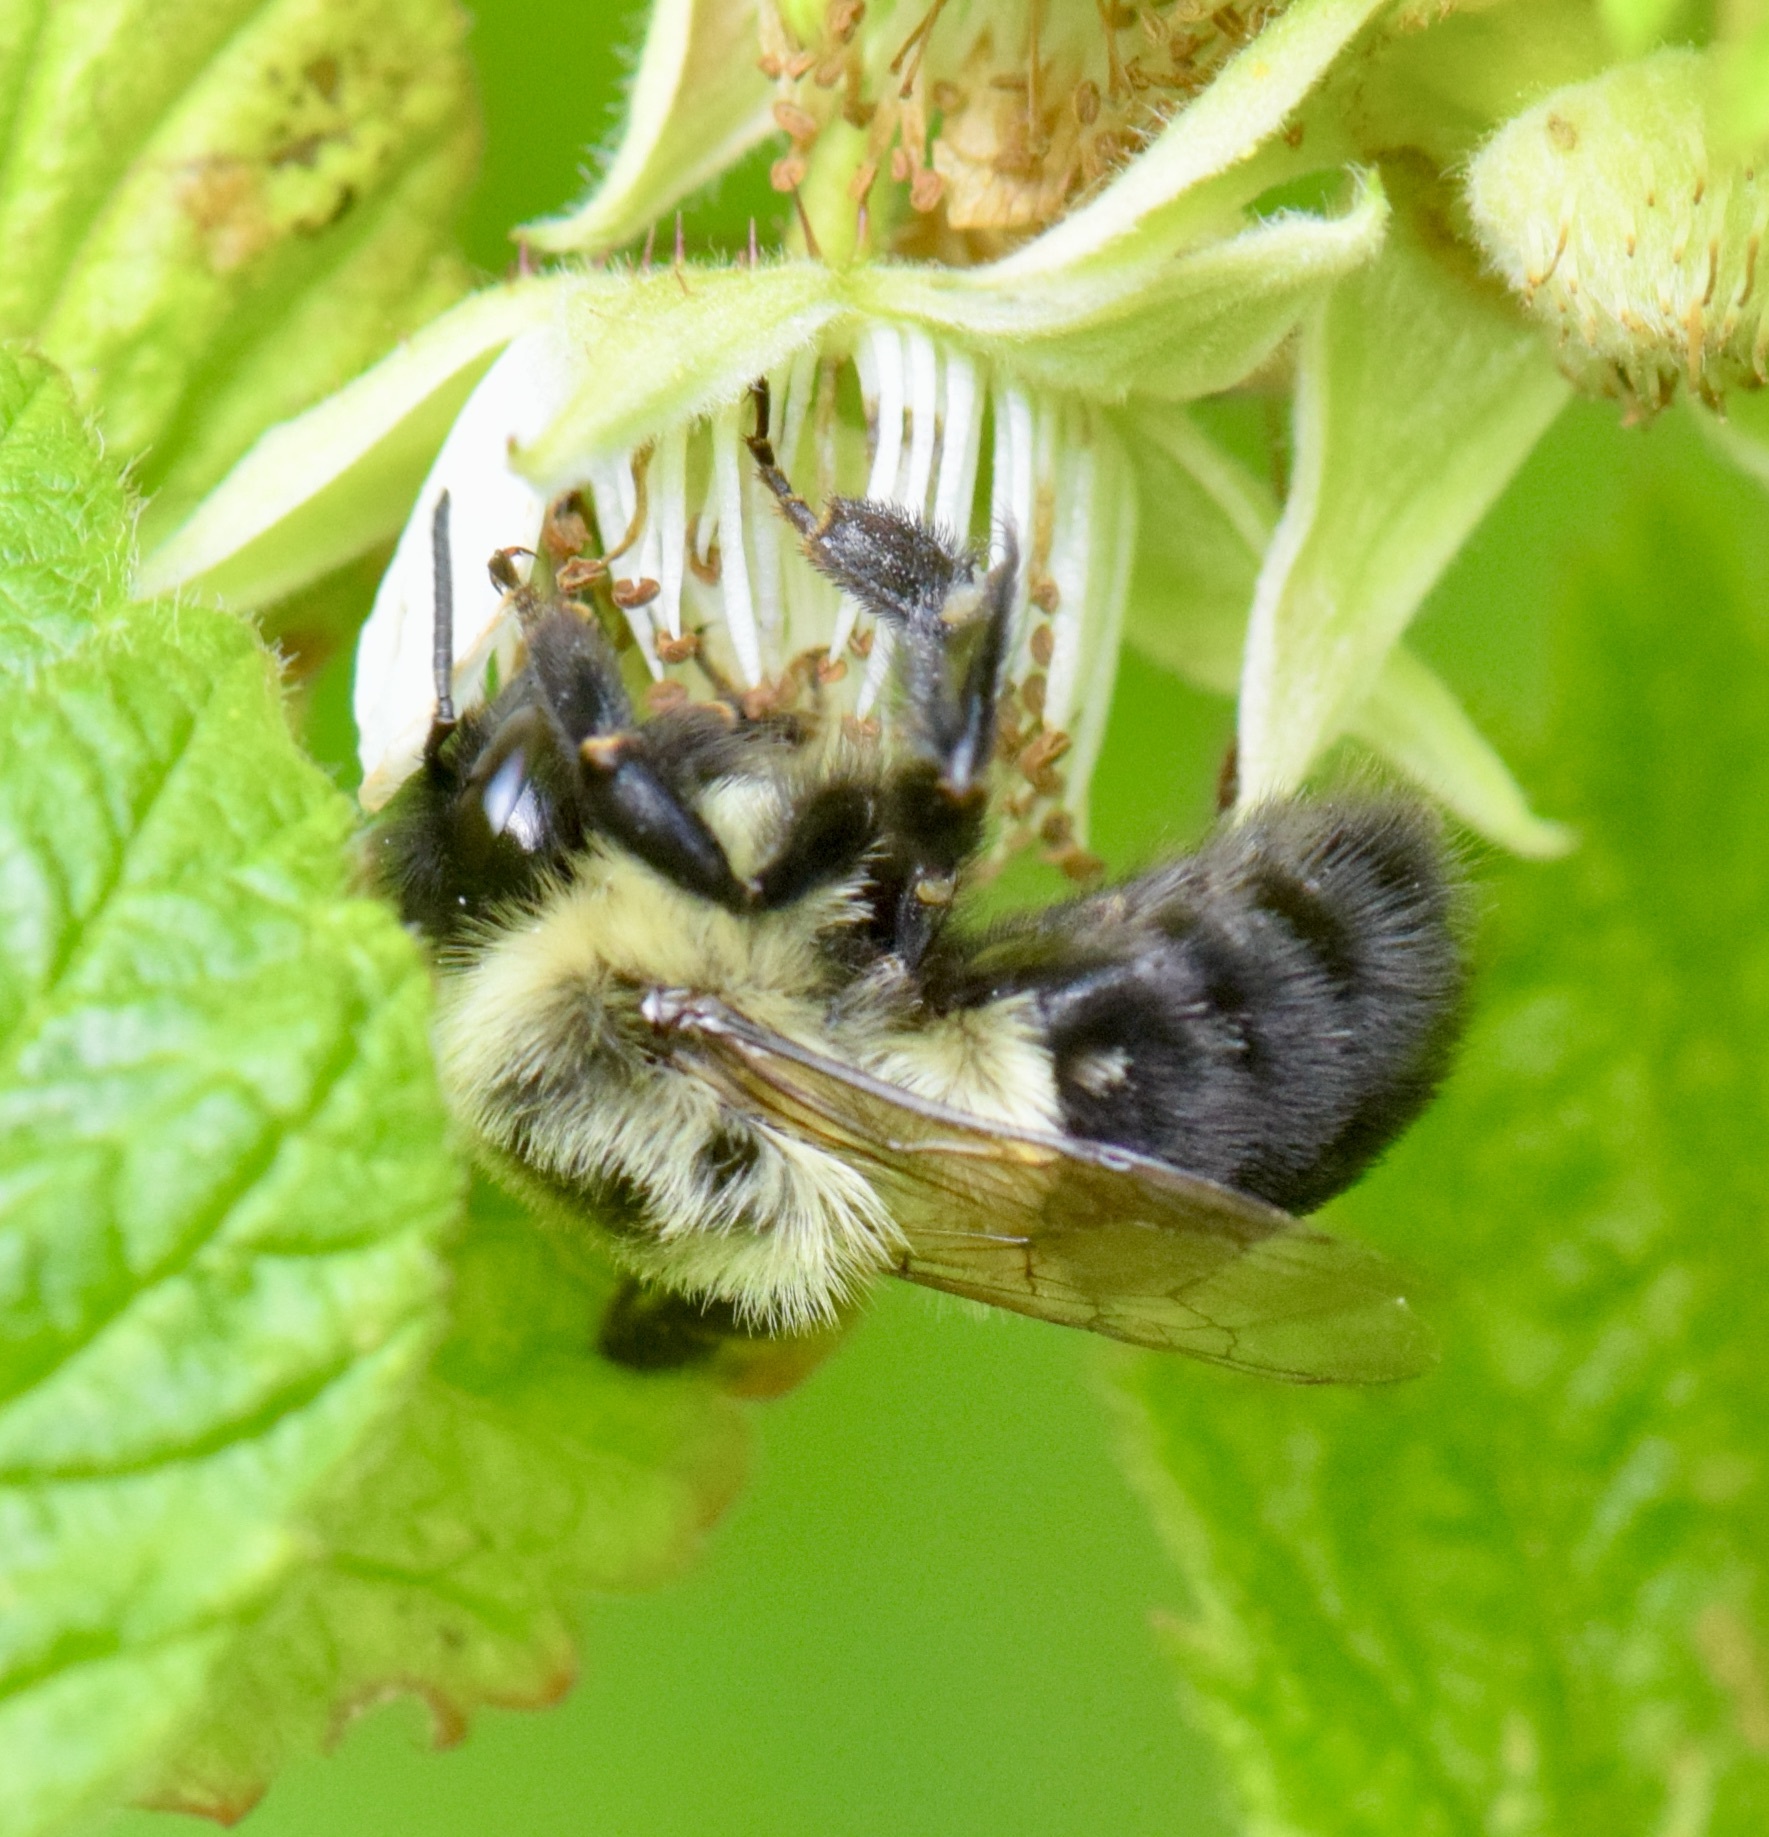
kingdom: Animalia
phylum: Arthropoda
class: Insecta
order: Hymenoptera
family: Apidae
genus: Bombus
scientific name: Bombus impatiens
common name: Common eastern bumble bee
